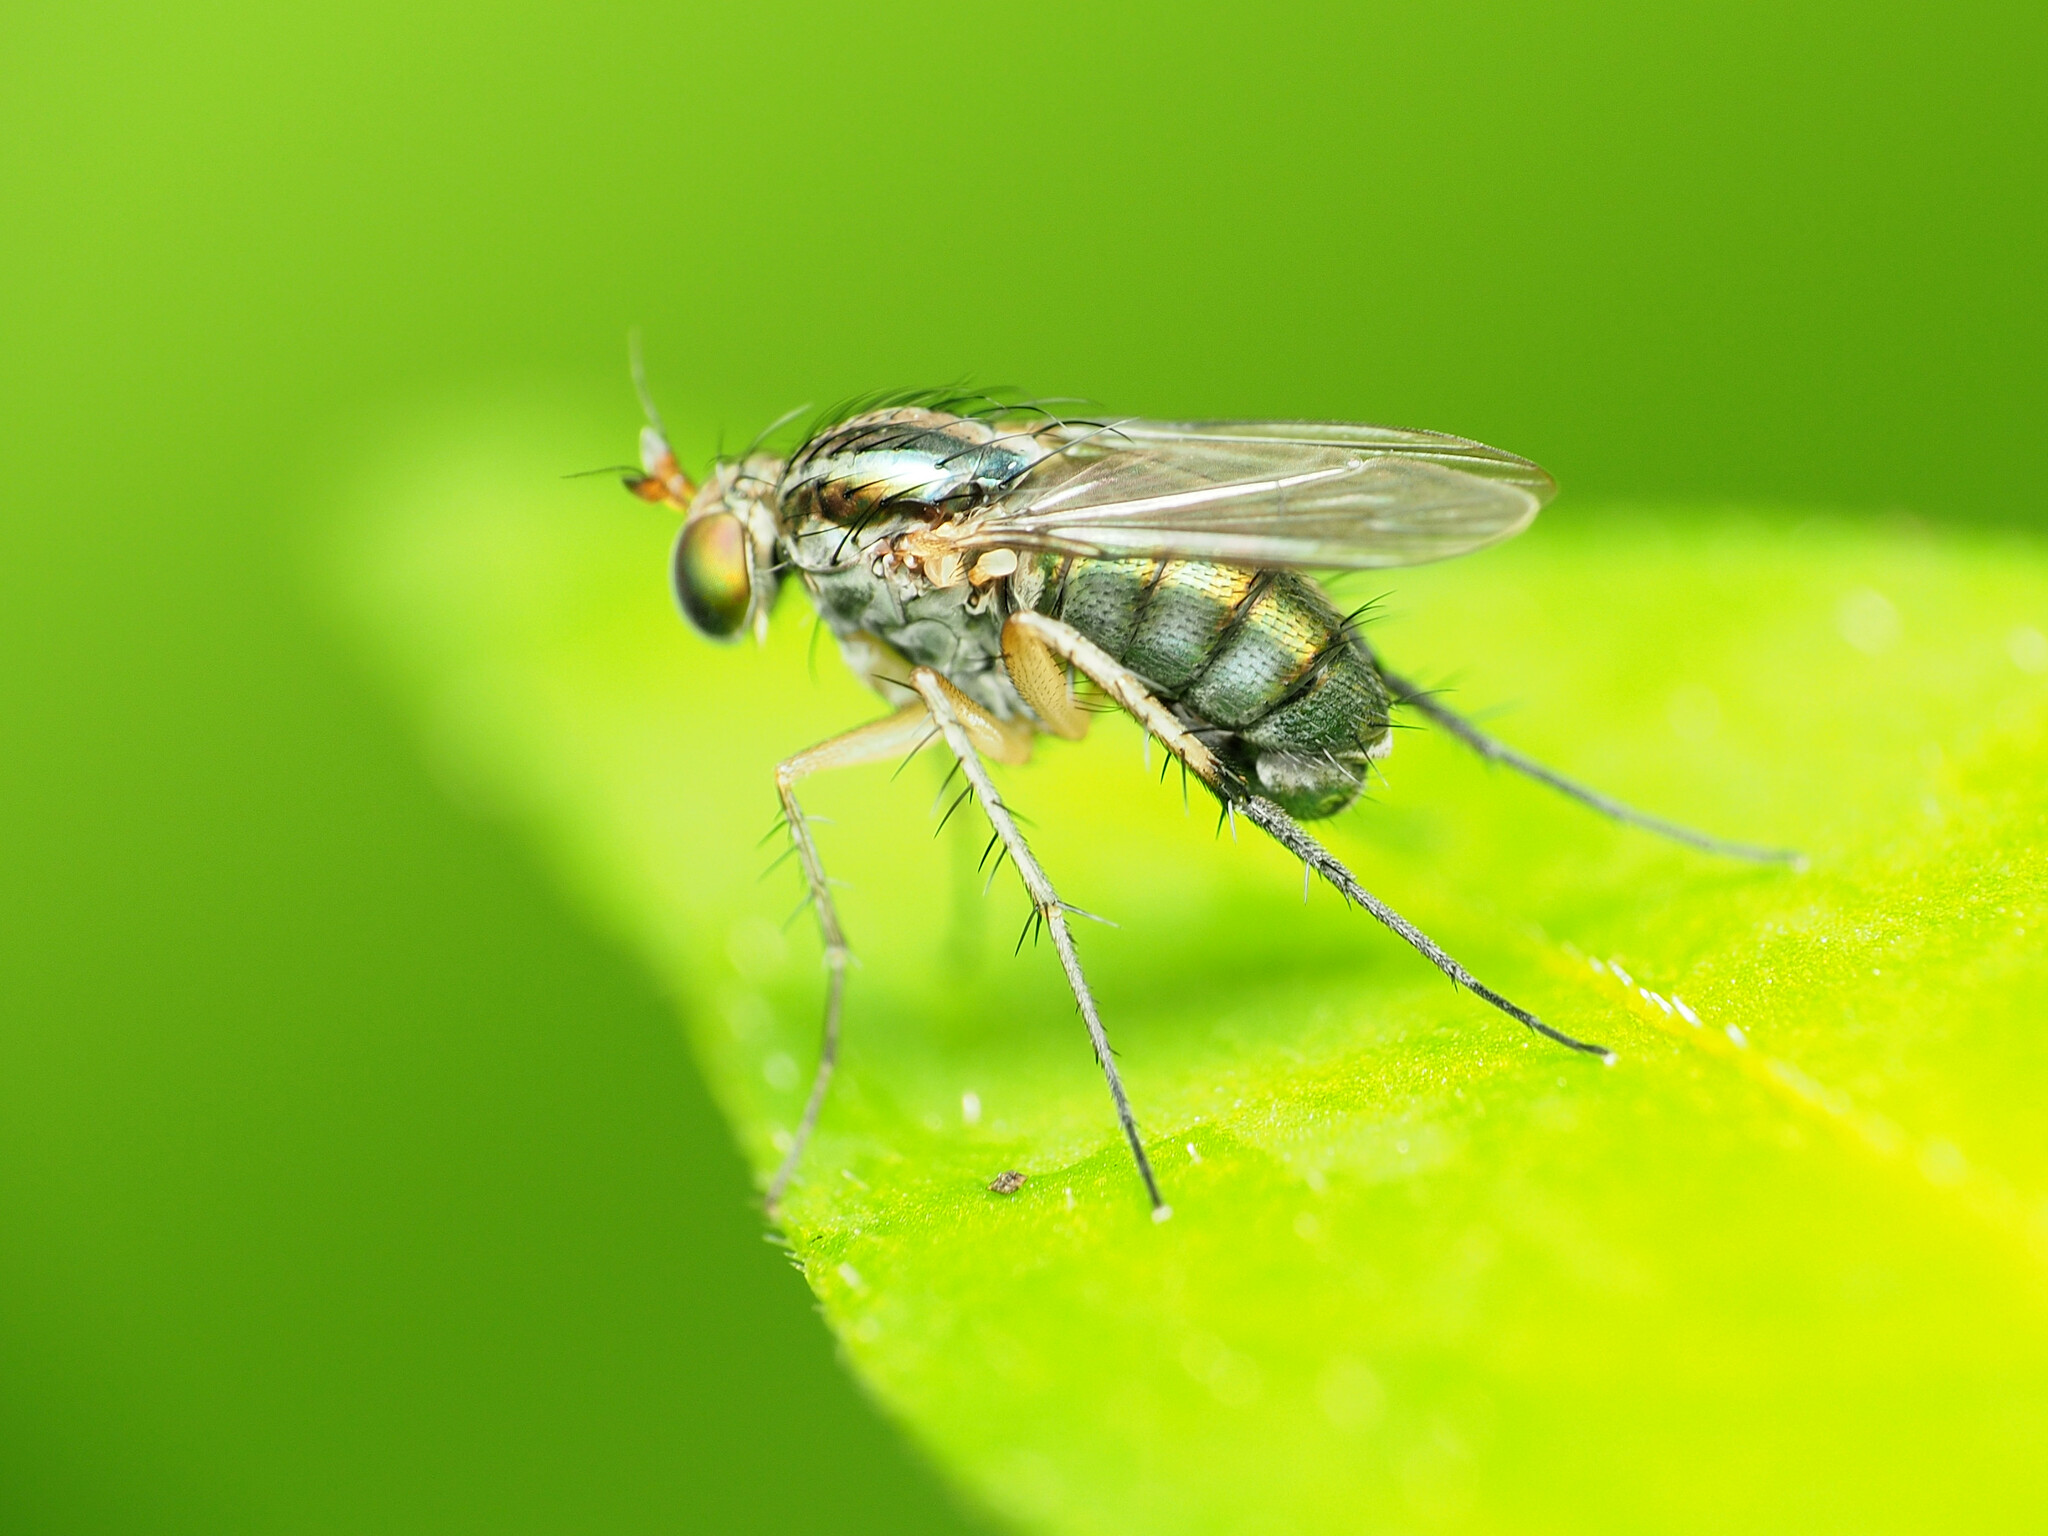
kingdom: Animalia
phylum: Arthropoda
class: Insecta
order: Diptera
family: Dolichopodidae
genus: Dolichopus
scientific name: Dolichopus reflectus
